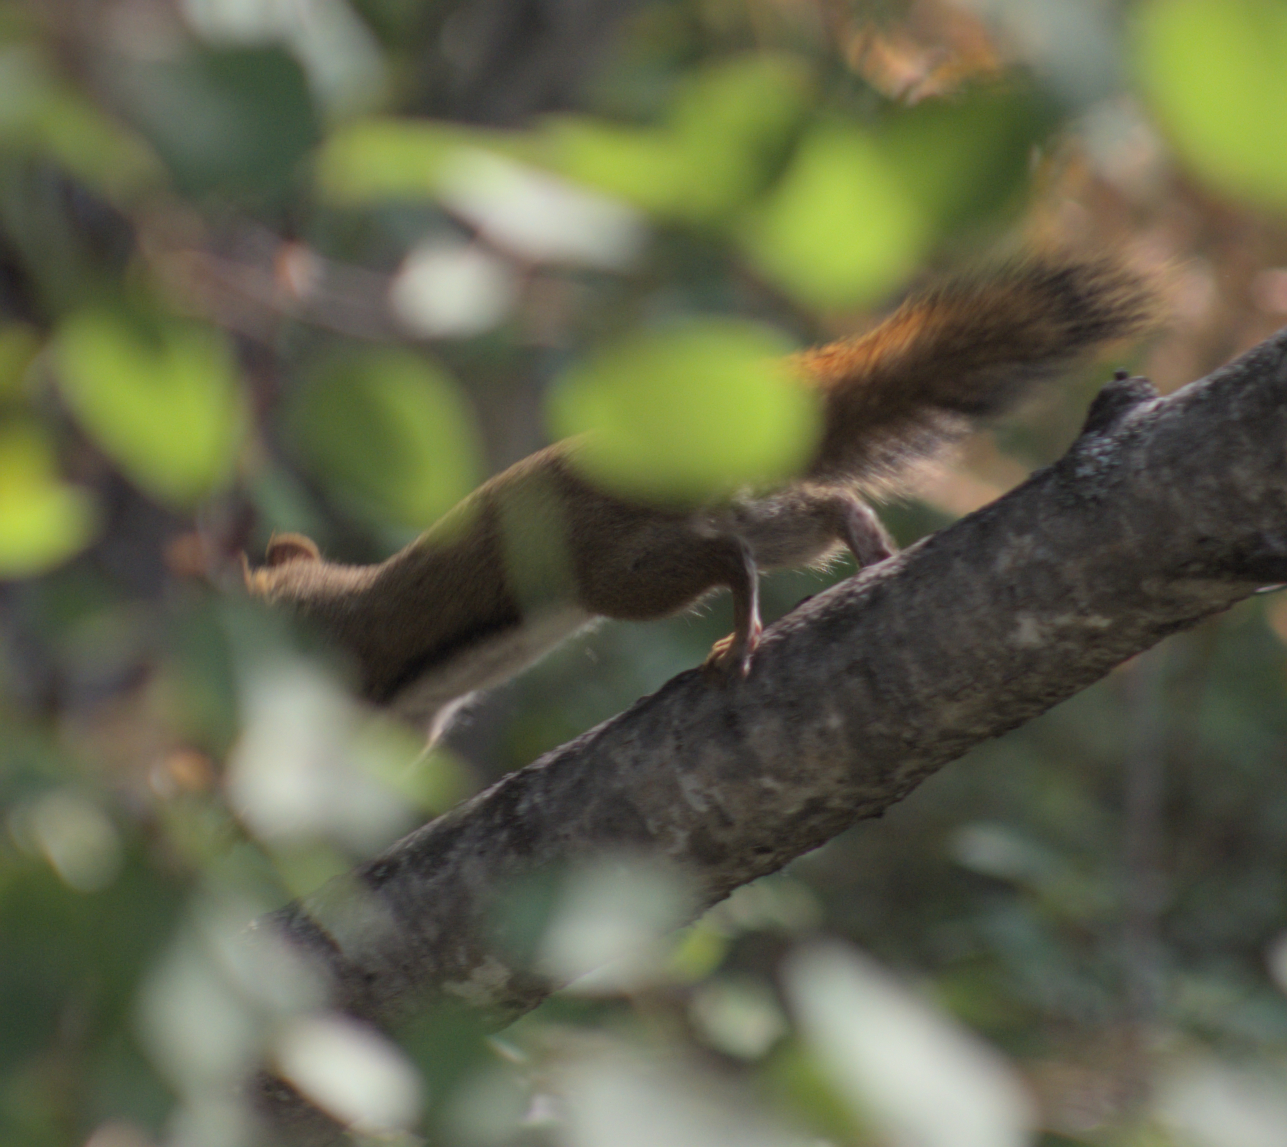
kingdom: Animalia
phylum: Chordata
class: Mammalia
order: Rodentia
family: Sciuridae
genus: Tamiasciurus
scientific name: Tamiasciurus hudsonicus
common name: Red squirrel
